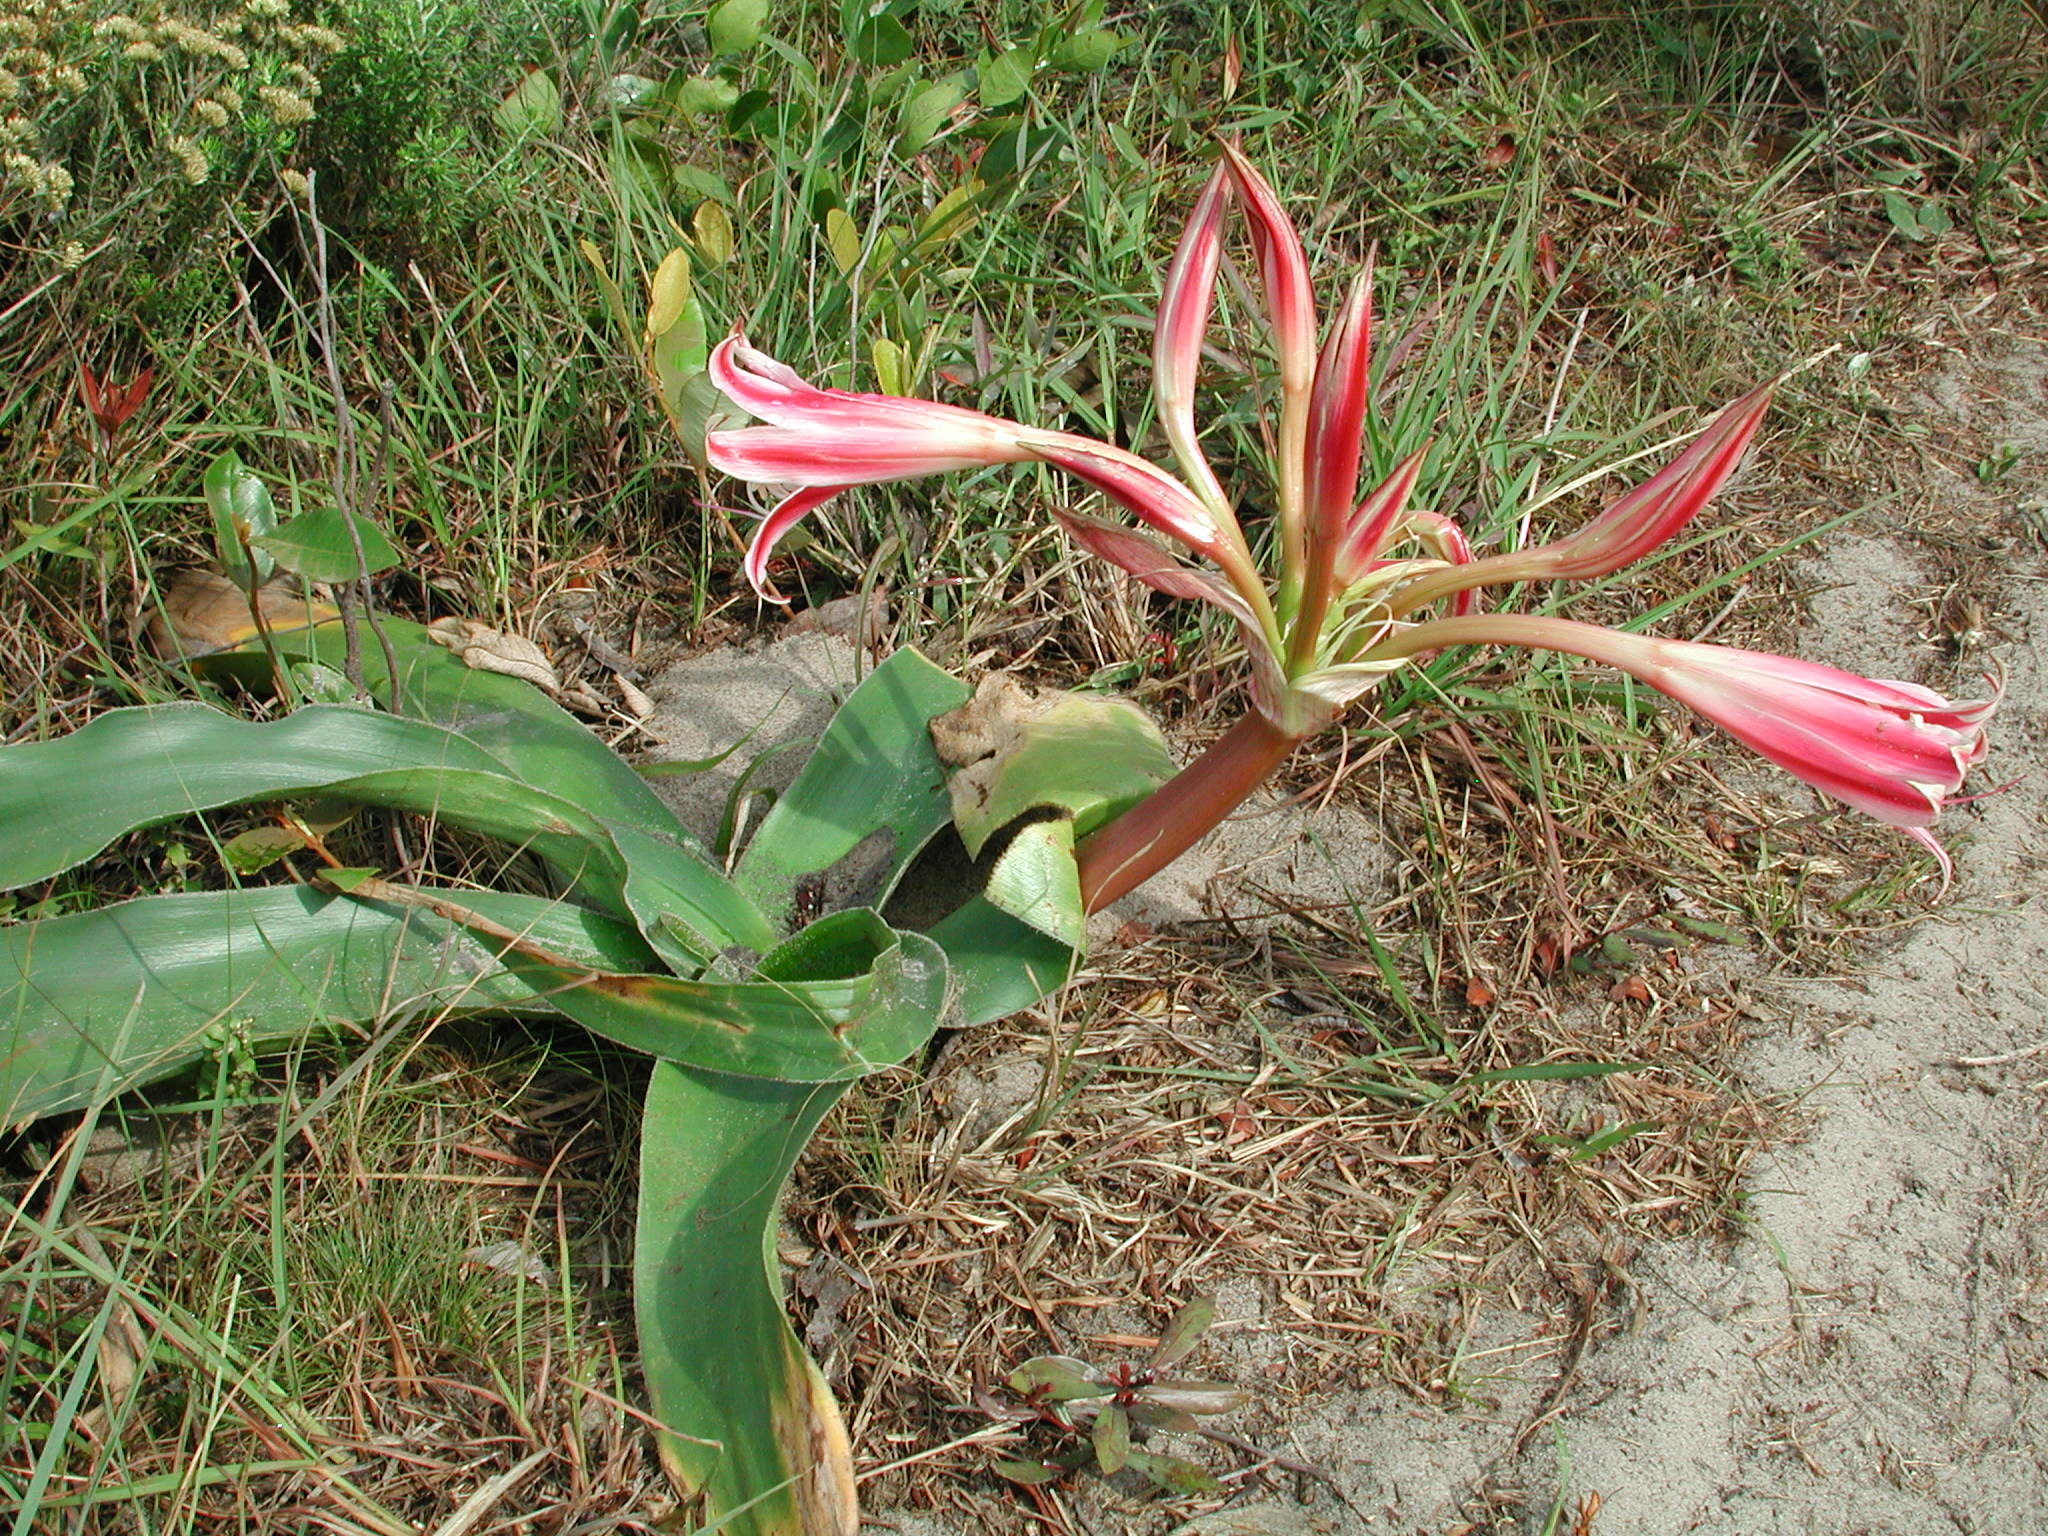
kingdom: Plantae
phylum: Tracheophyta
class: Liliopsida
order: Asparagales
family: Amaryllidaceae
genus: Crinum
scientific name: Crinum stuhlmannii
